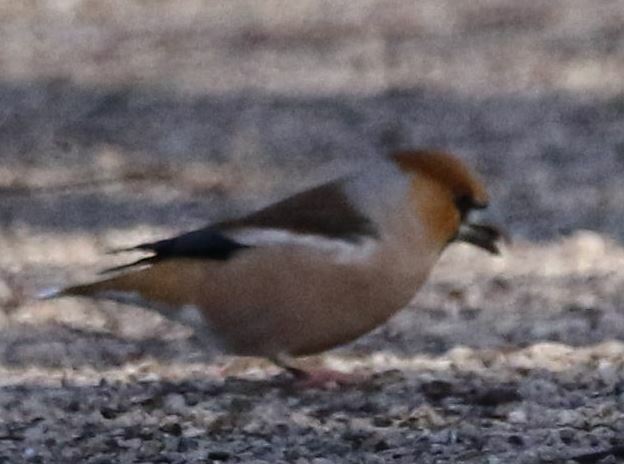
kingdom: Animalia
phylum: Chordata
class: Aves
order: Passeriformes
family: Fringillidae
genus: Coccothraustes
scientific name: Coccothraustes coccothraustes
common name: Hawfinch
